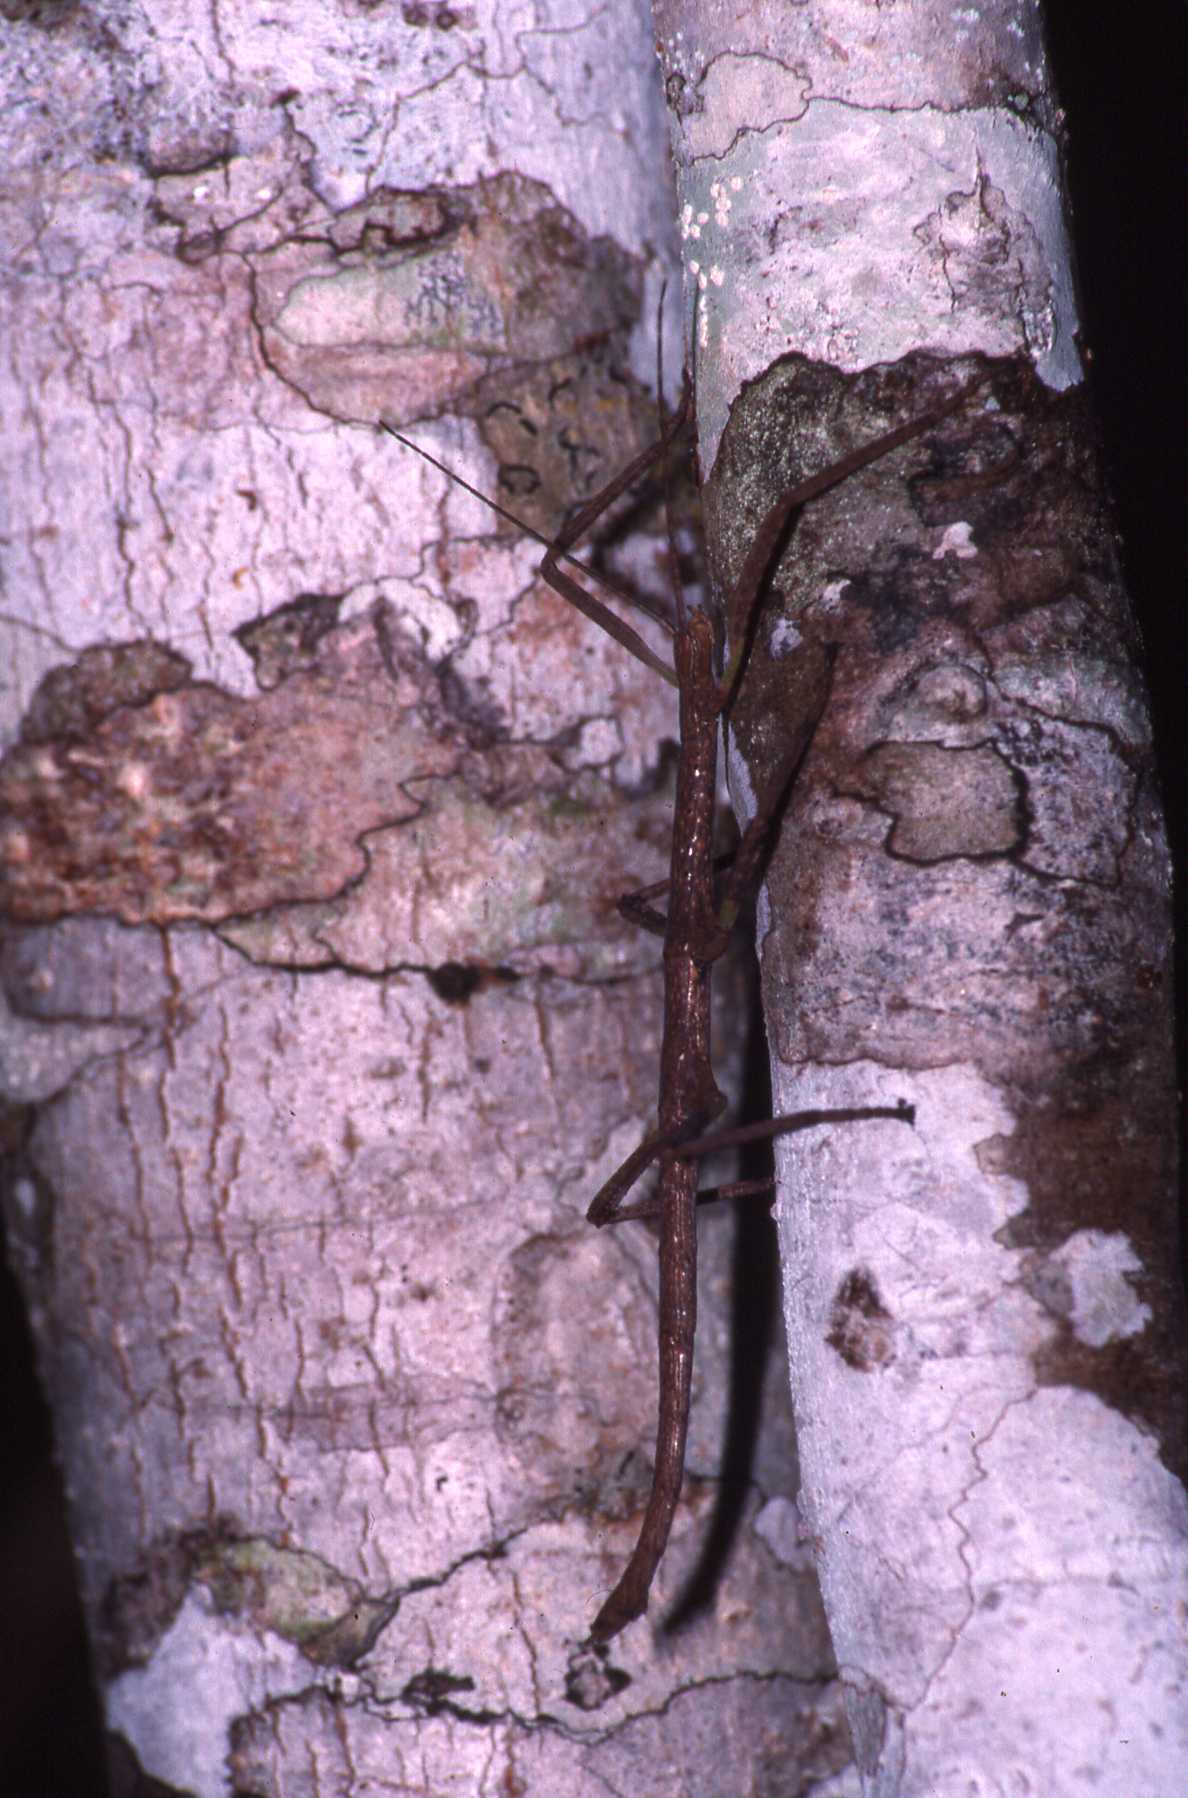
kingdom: Animalia
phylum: Arthropoda
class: Insecta
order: Phasmida
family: Lonchodidae
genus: Carausius
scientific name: Carausius morosus
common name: Indian stick insect
